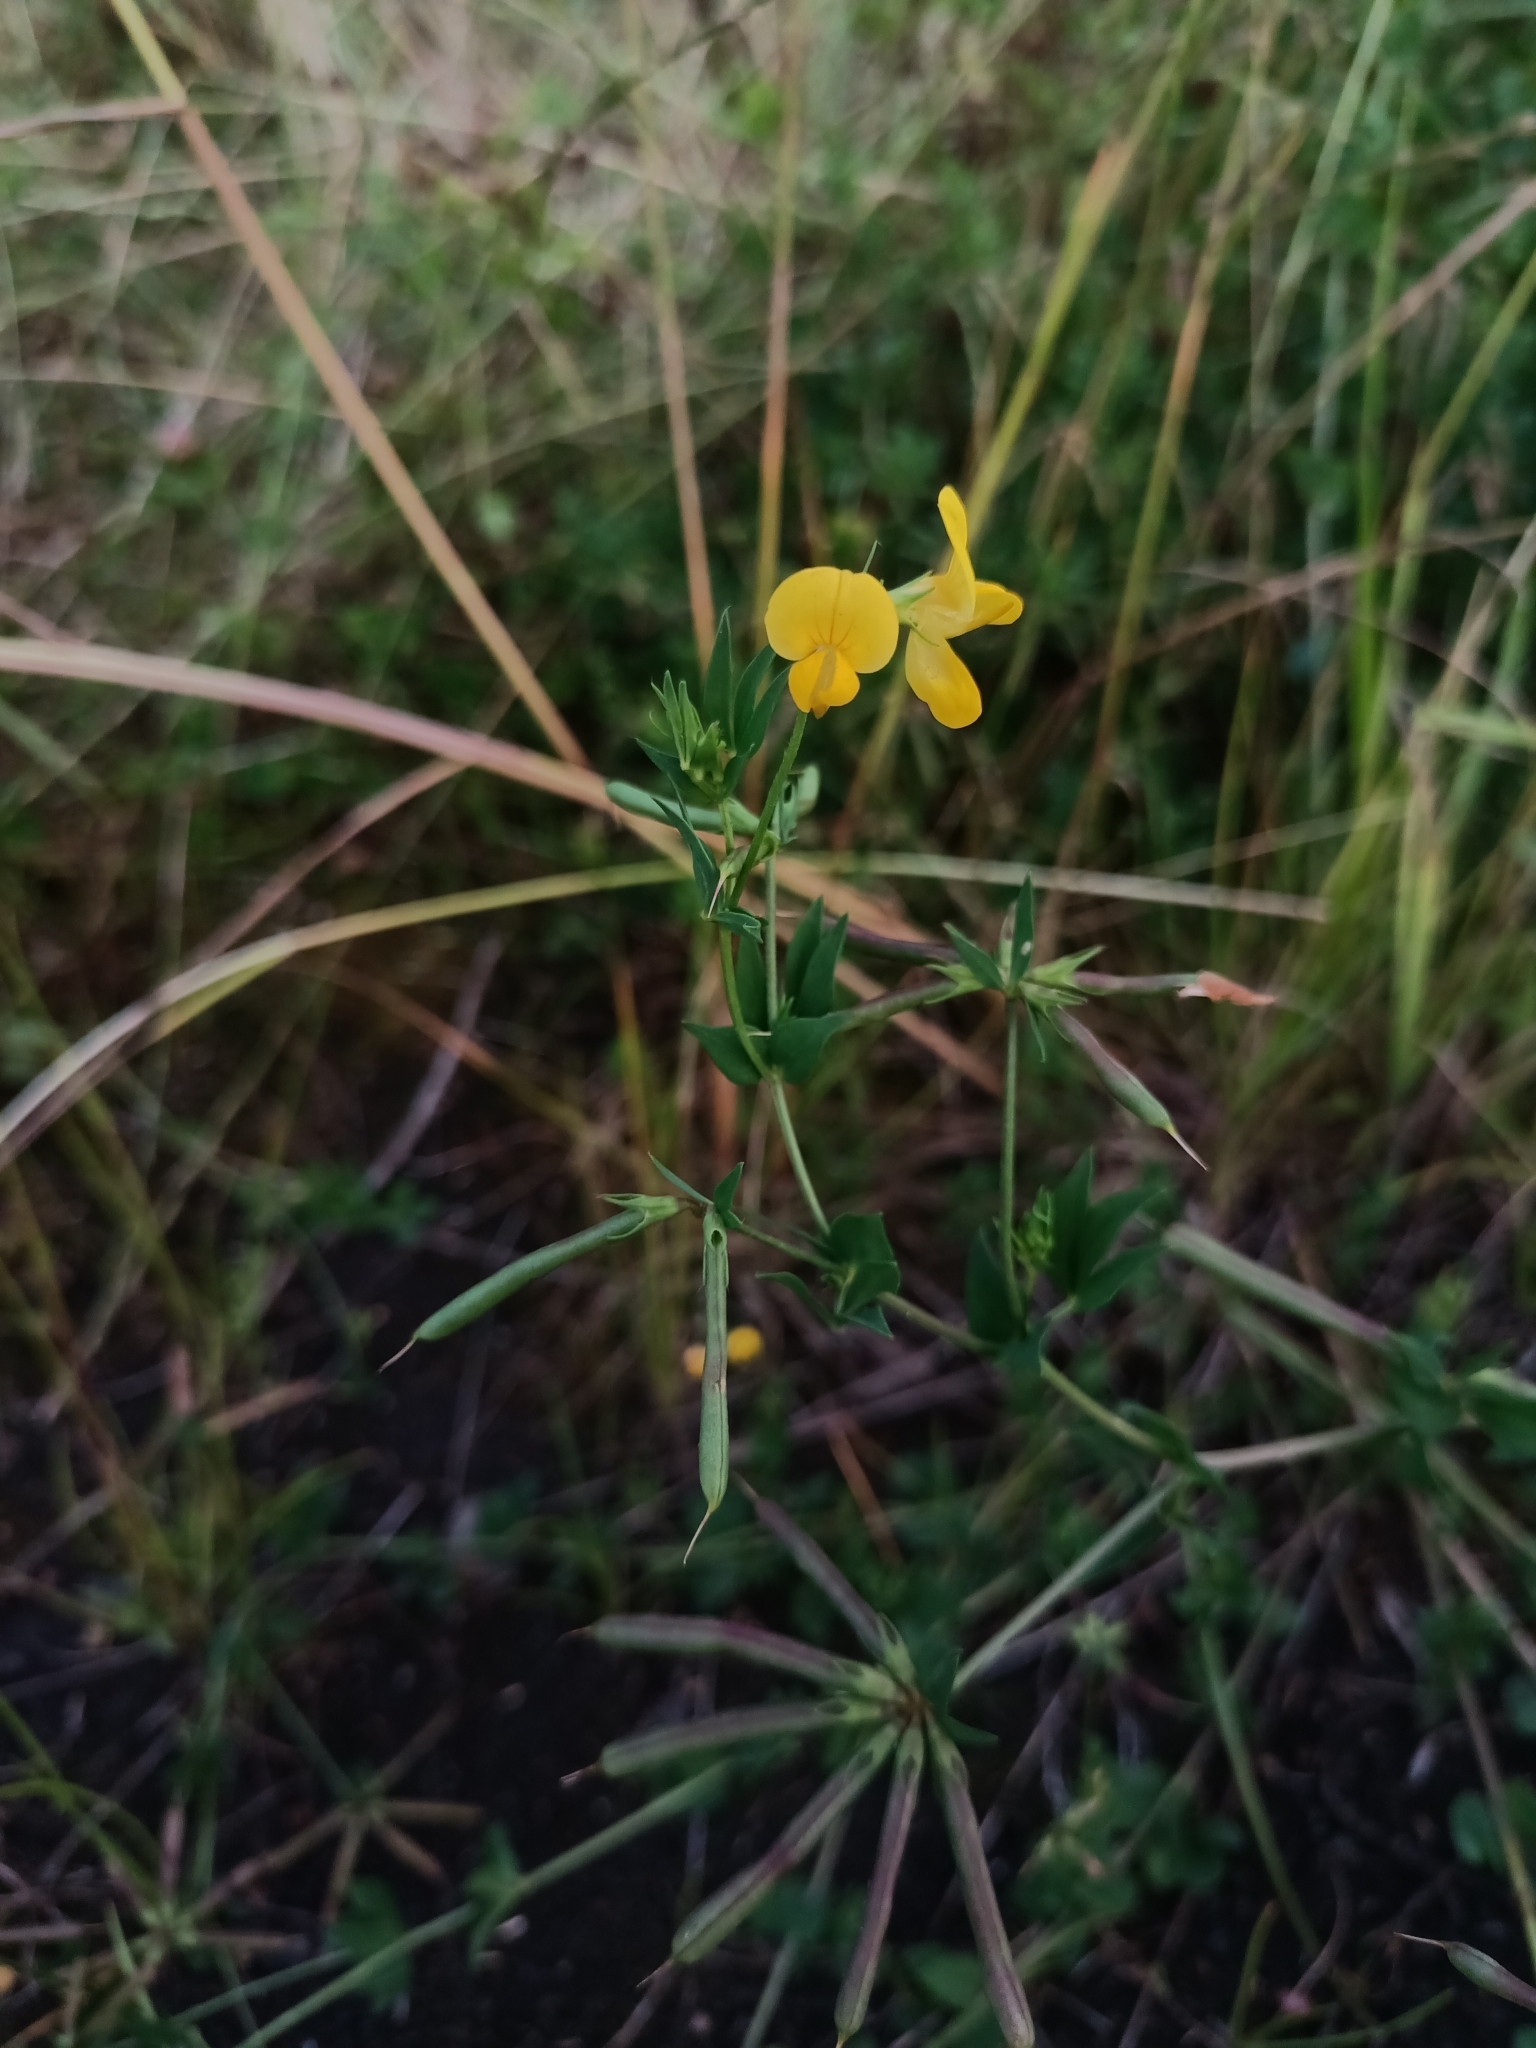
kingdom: Plantae
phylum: Tracheophyta
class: Magnoliopsida
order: Fabales
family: Fabaceae
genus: Lotus
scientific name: Lotus corniculatus
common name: Common bird's-foot-trefoil
